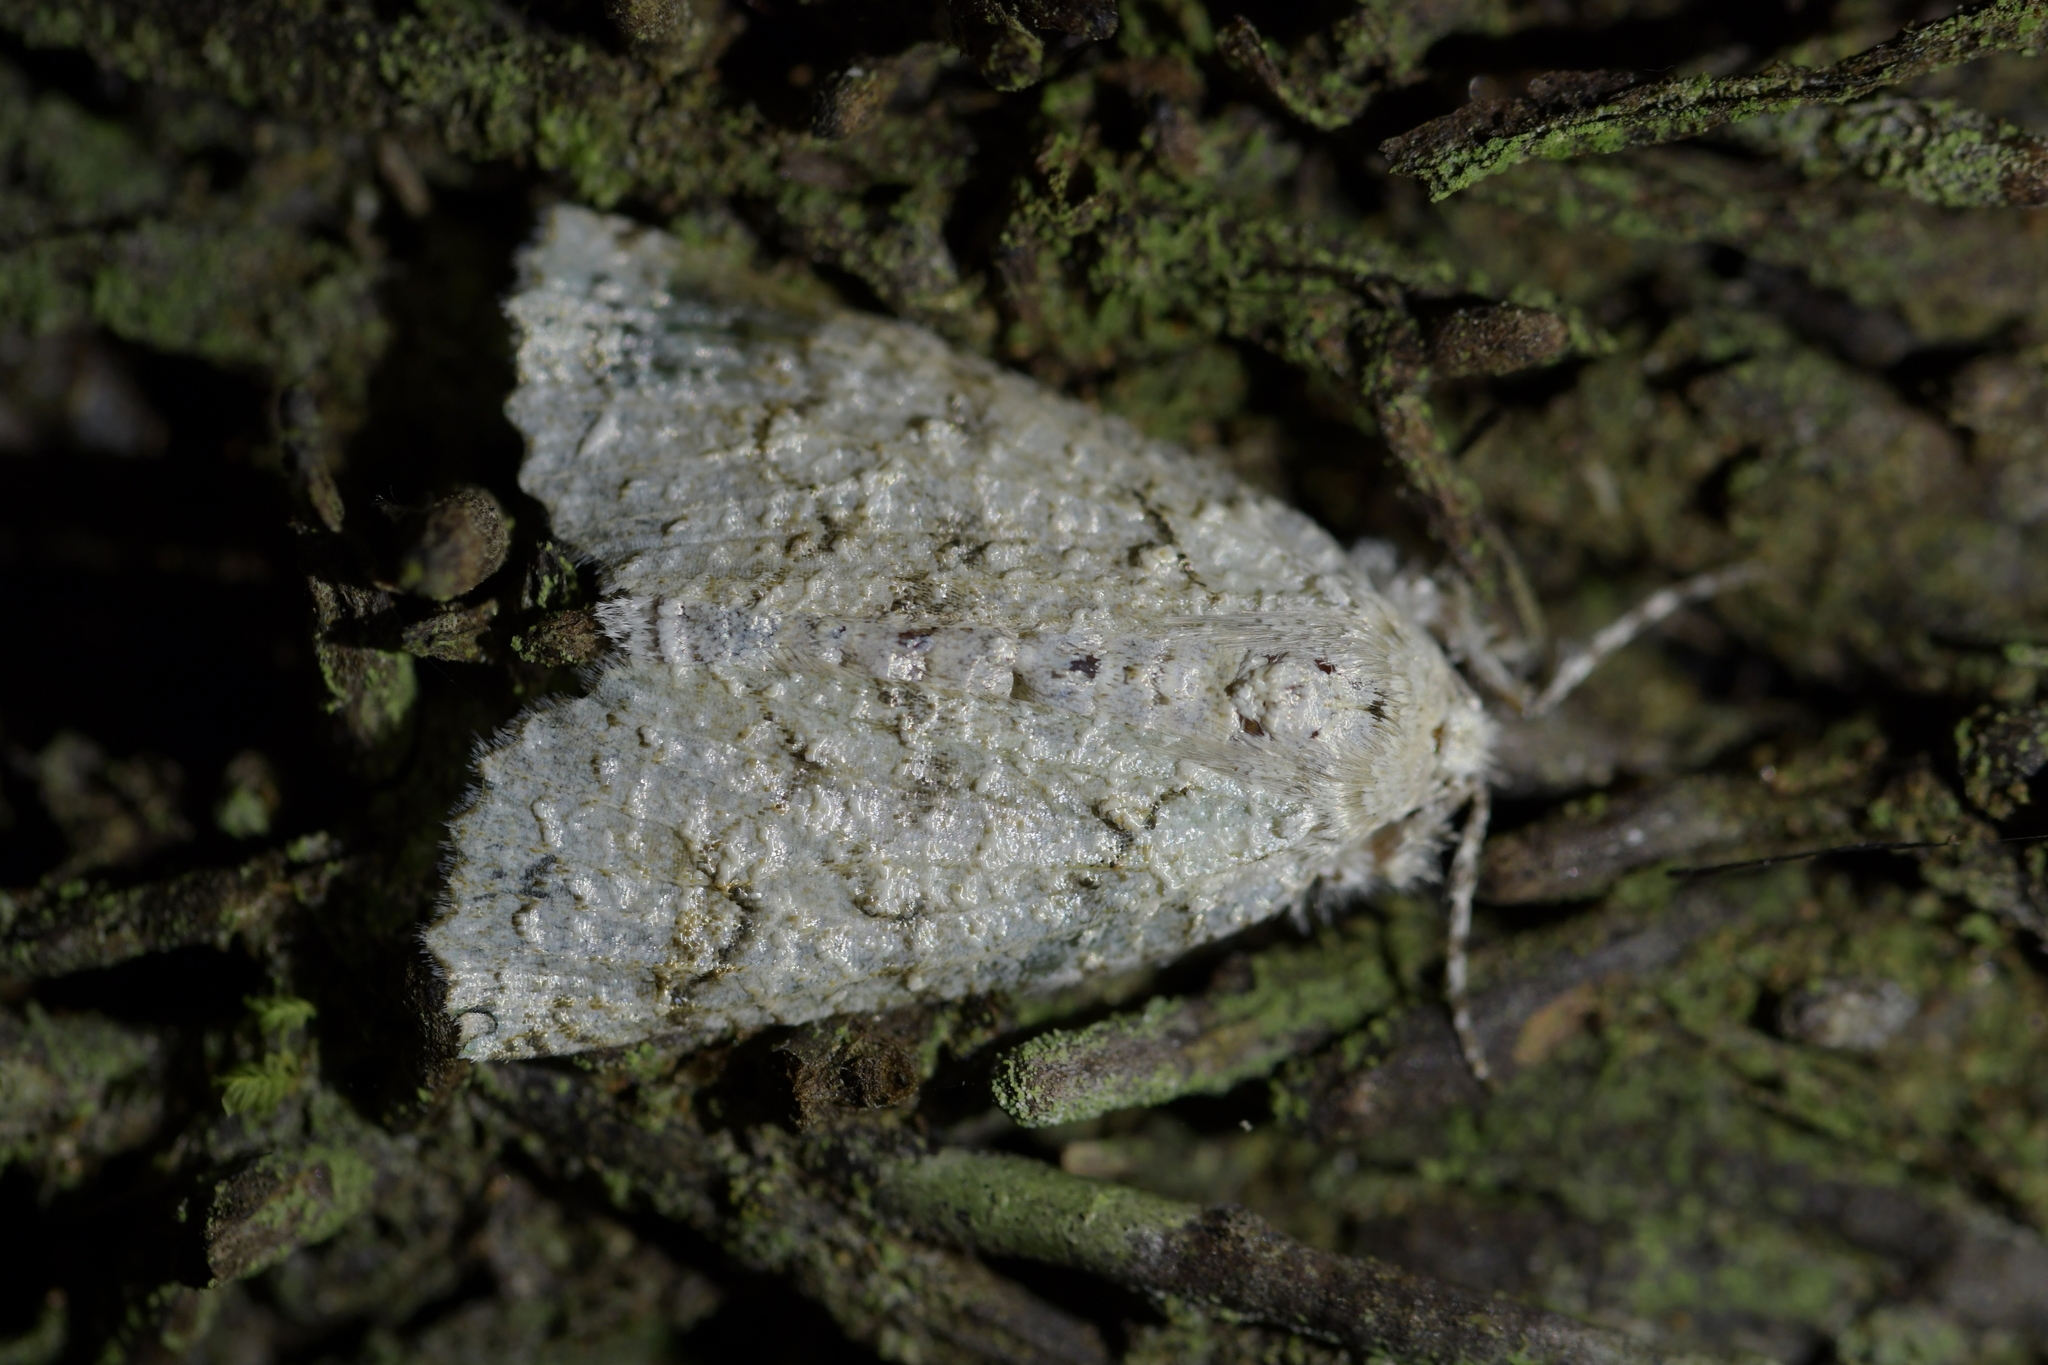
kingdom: Animalia
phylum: Arthropoda
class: Insecta
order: Lepidoptera
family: Geometridae
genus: Declana
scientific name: Declana floccosa
